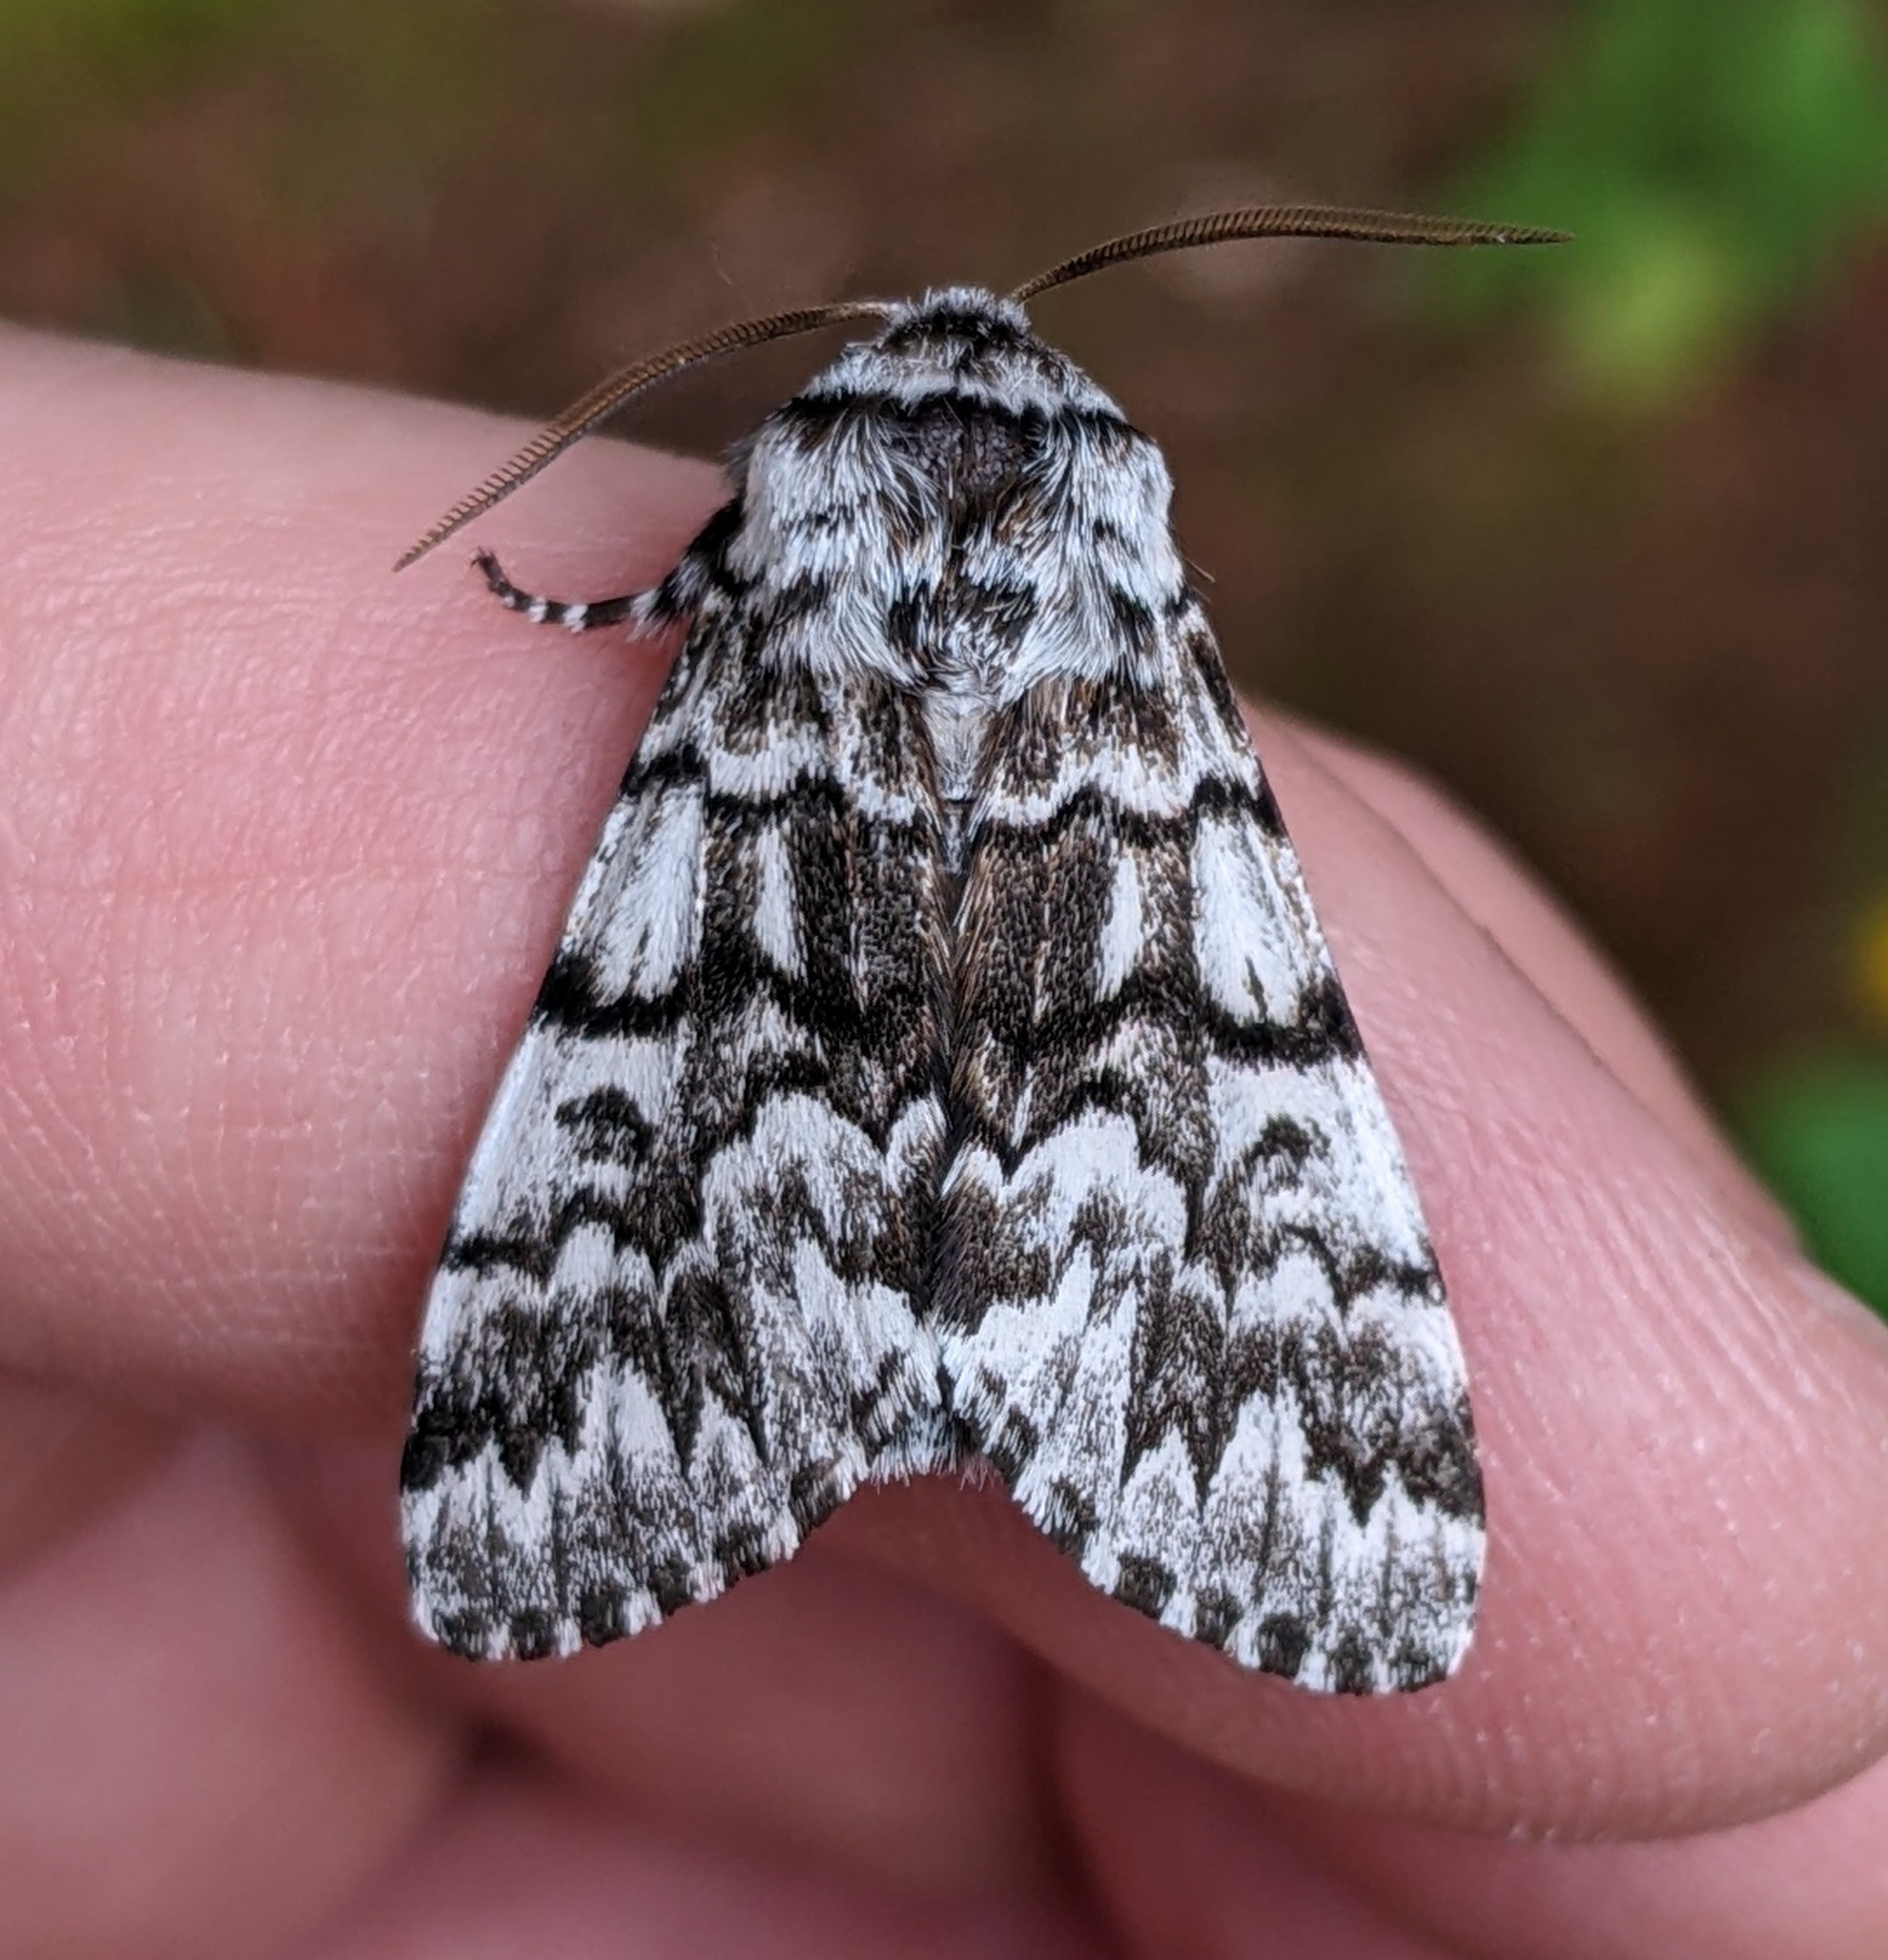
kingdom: Animalia
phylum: Arthropoda
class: Insecta
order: Lepidoptera
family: Noctuidae
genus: Panthea
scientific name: Panthea virginarius
